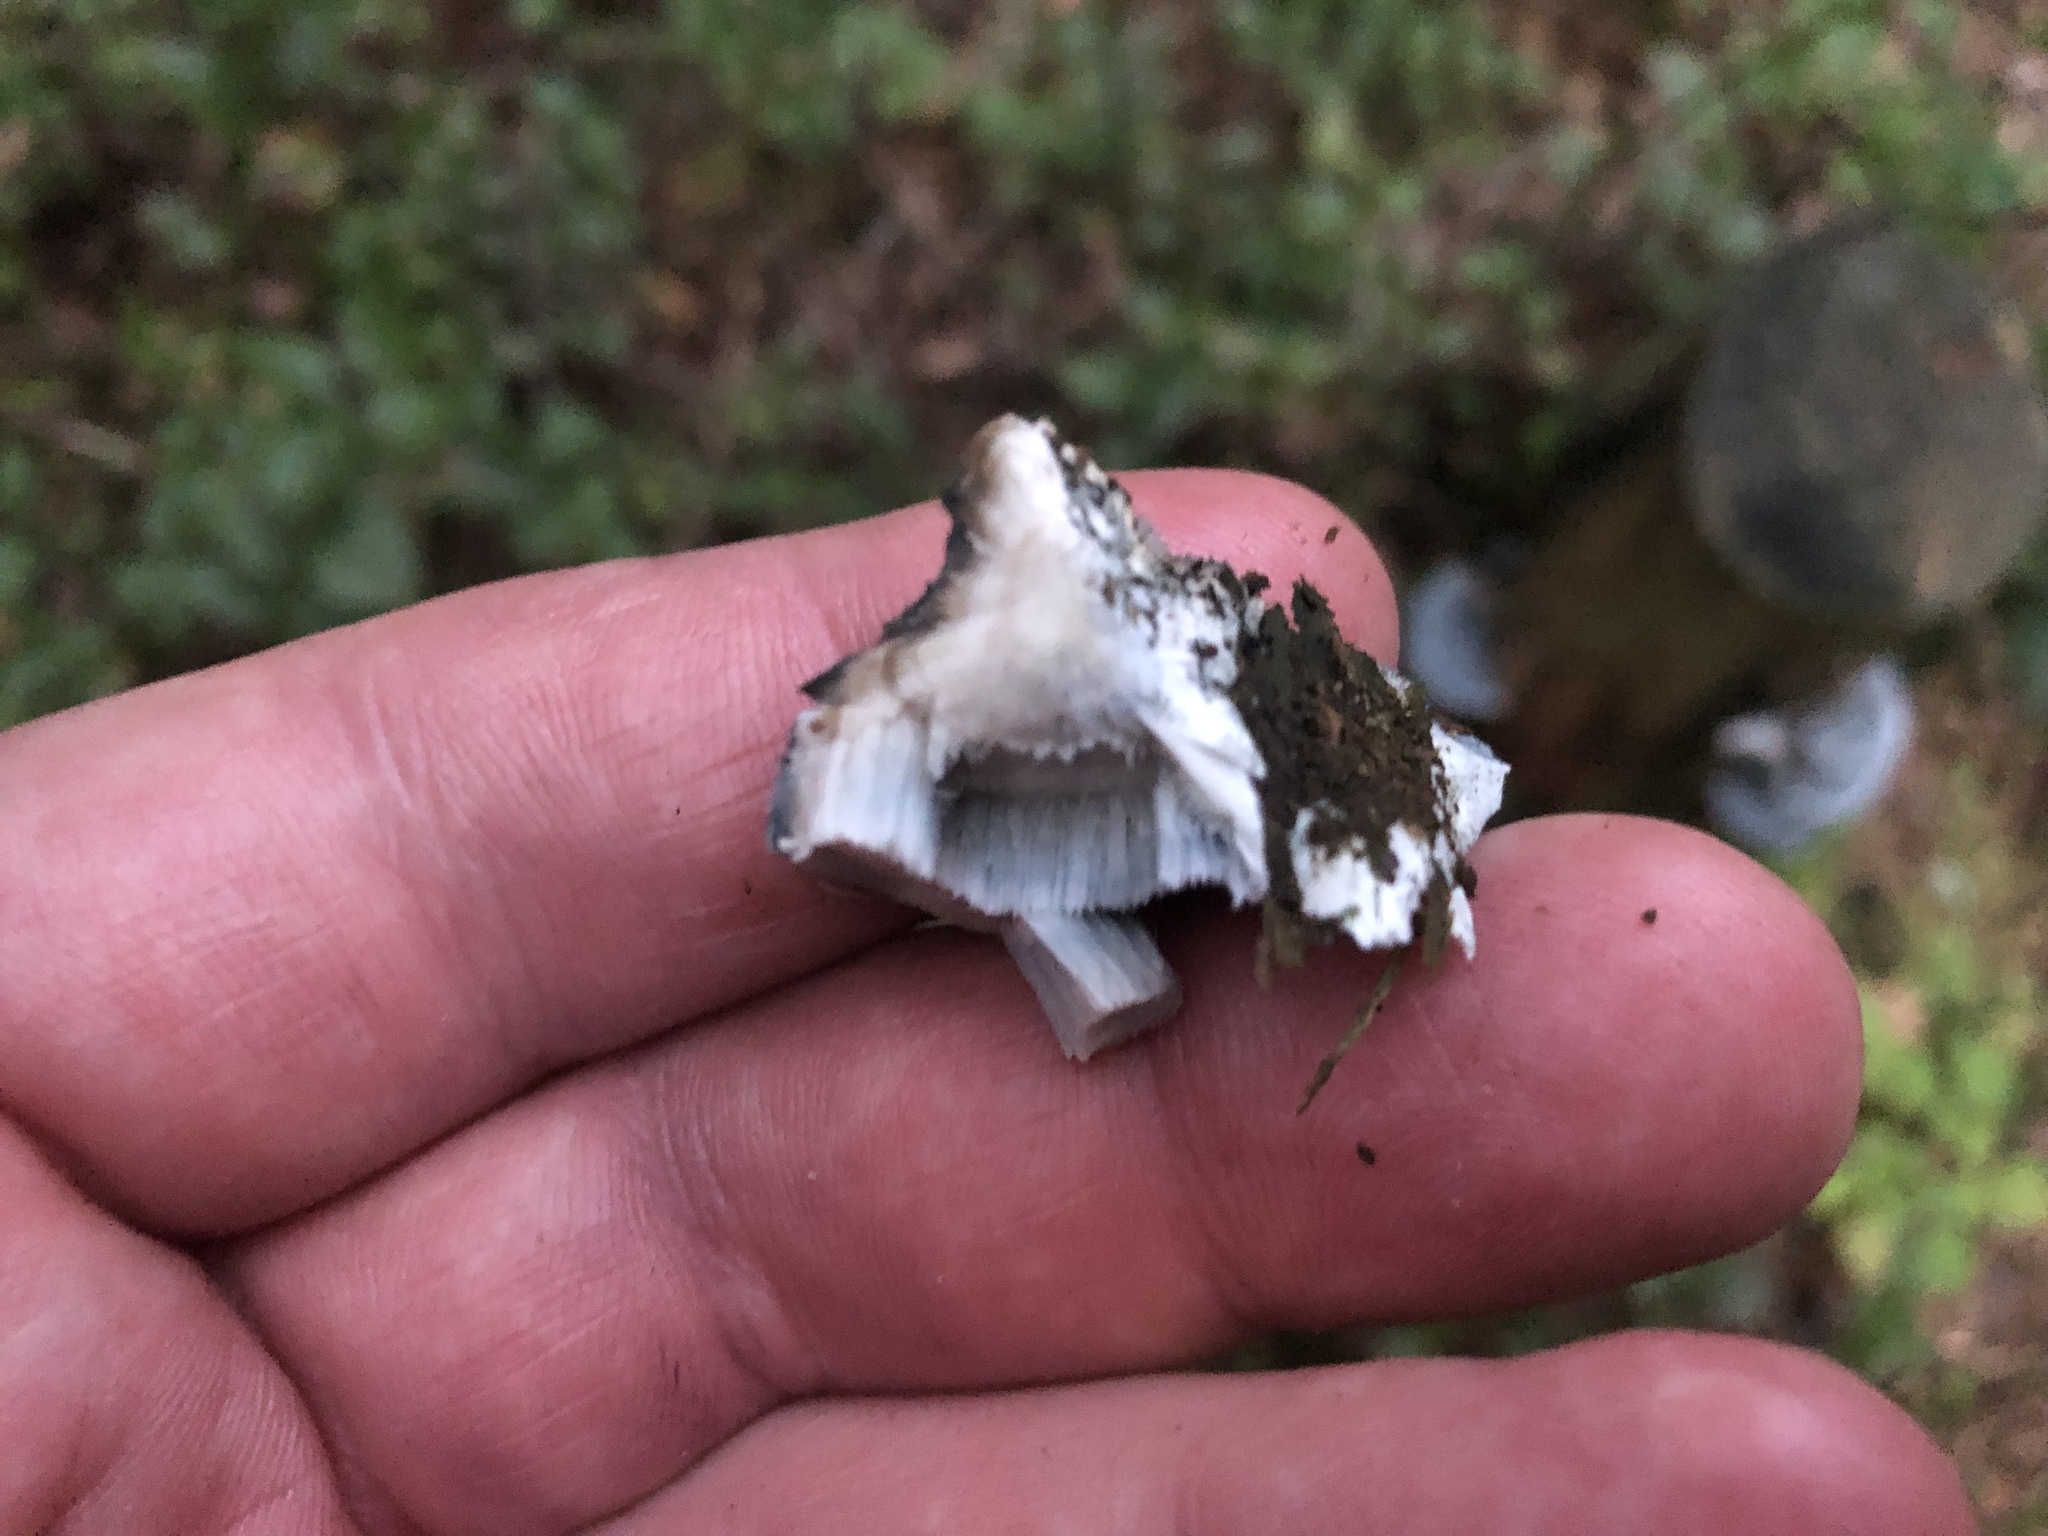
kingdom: Fungi
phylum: Basidiomycota
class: Agaricomycetes
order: Polyporales
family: Polyporaceae
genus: Cyanosporus
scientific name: Cyanosporus caesius
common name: Blue cheese polypore
